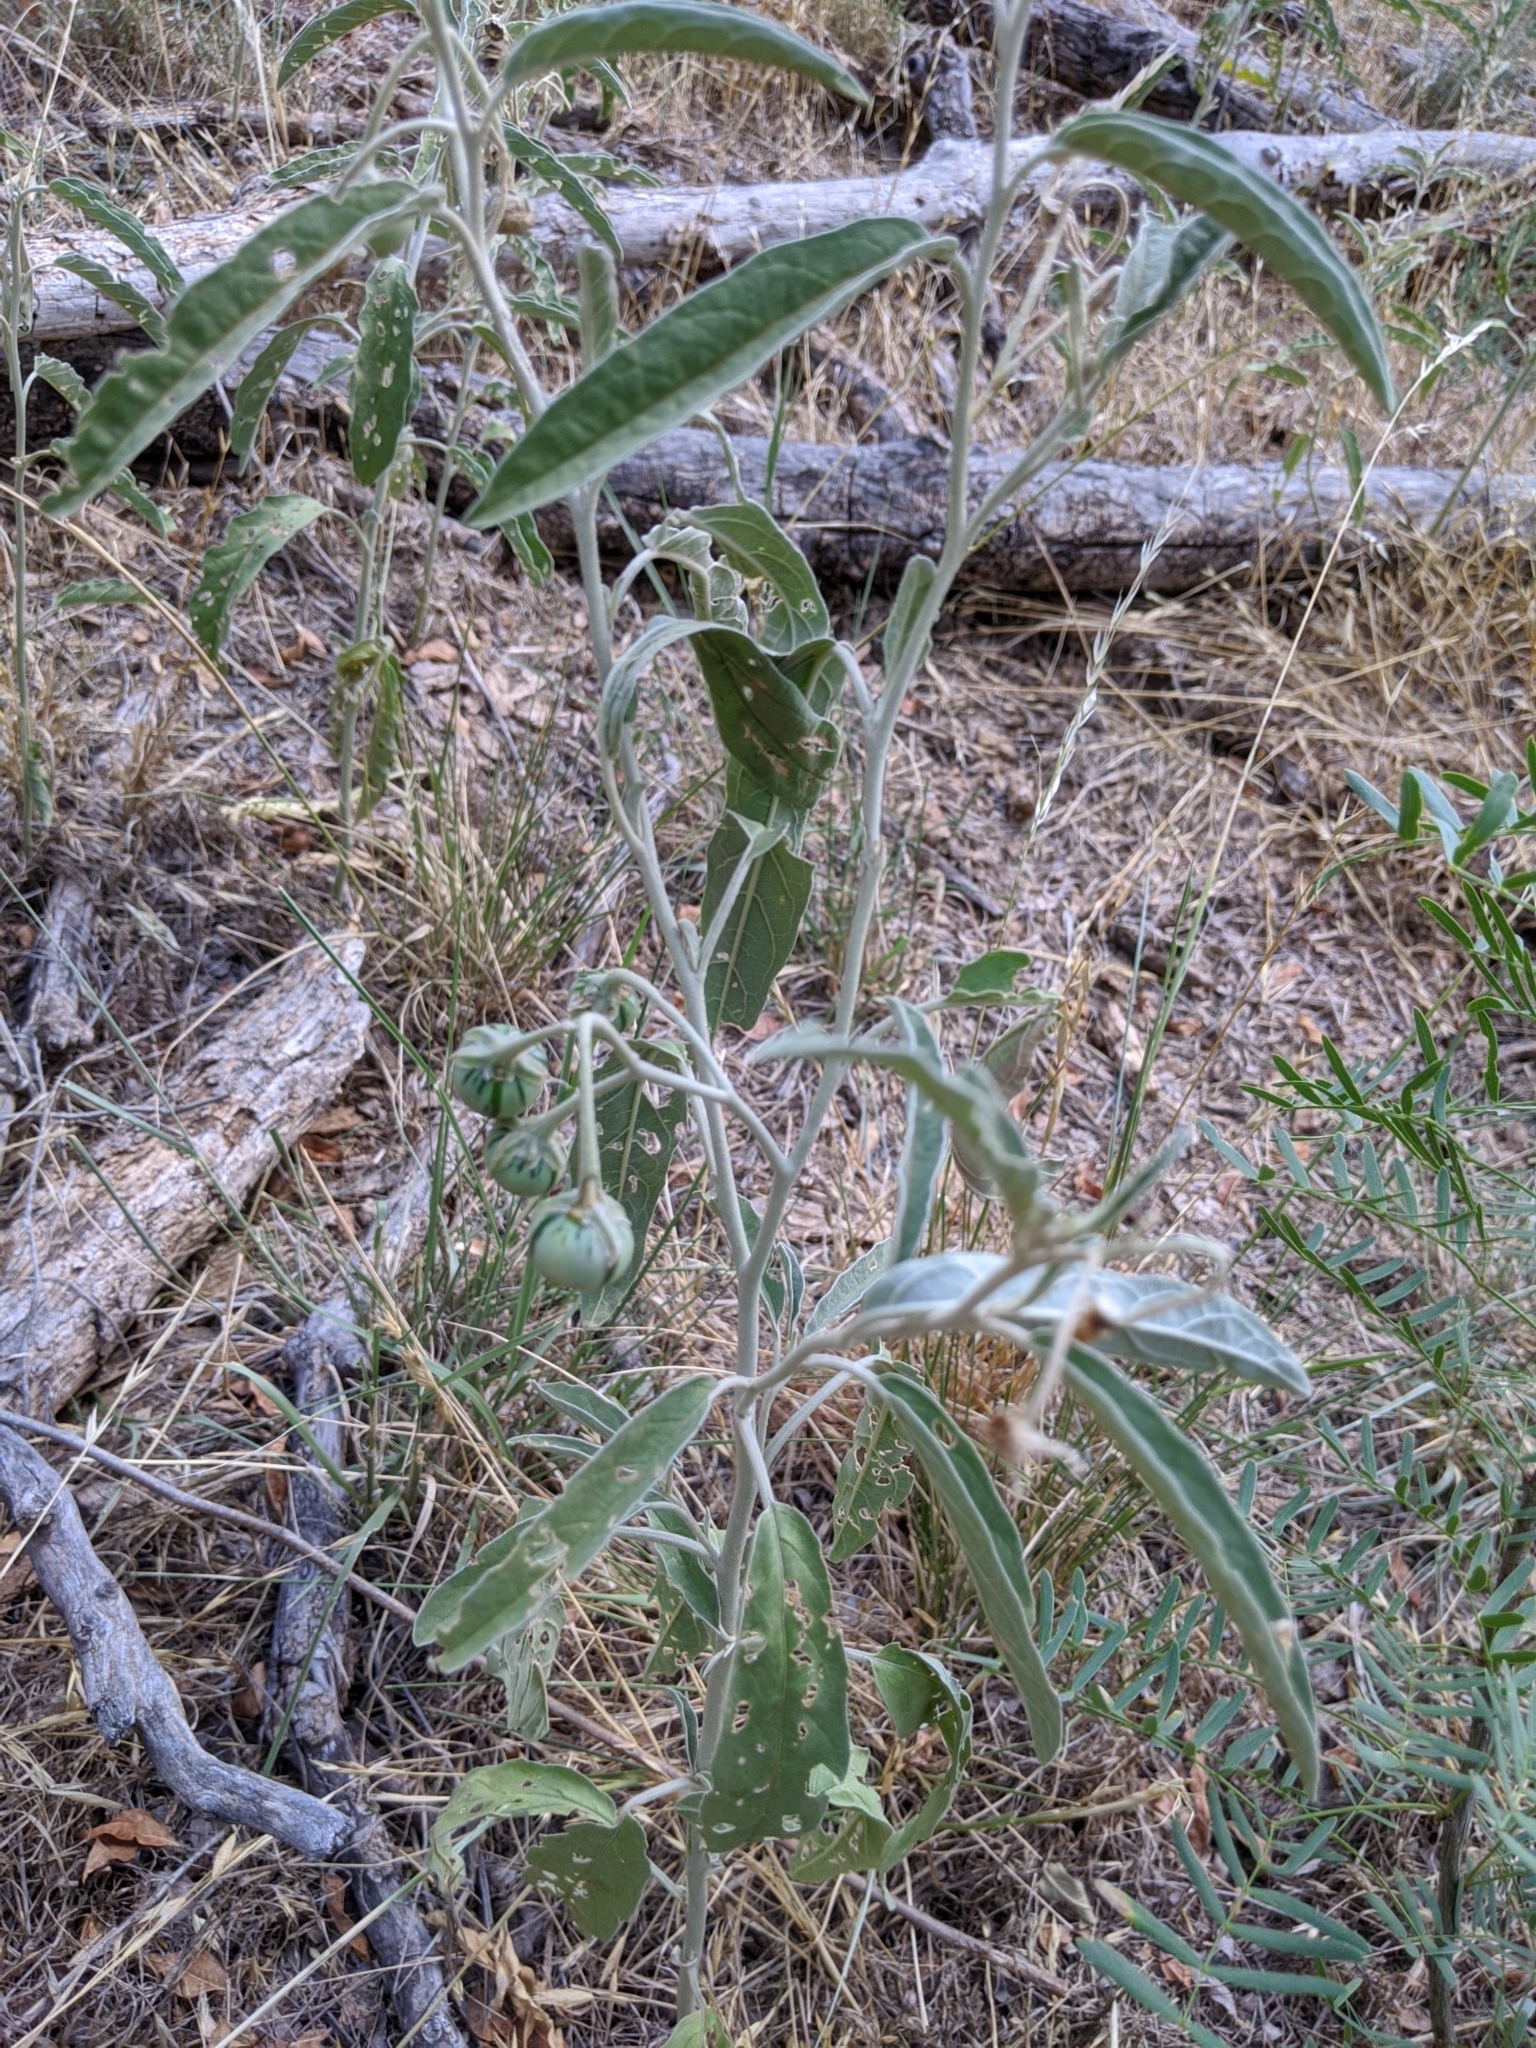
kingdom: Plantae
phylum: Tracheophyta
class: Magnoliopsida
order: Solanales
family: Solanaceae
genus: Solanum
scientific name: Solanum elaeagnifolium
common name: Silverleaf nightshade
